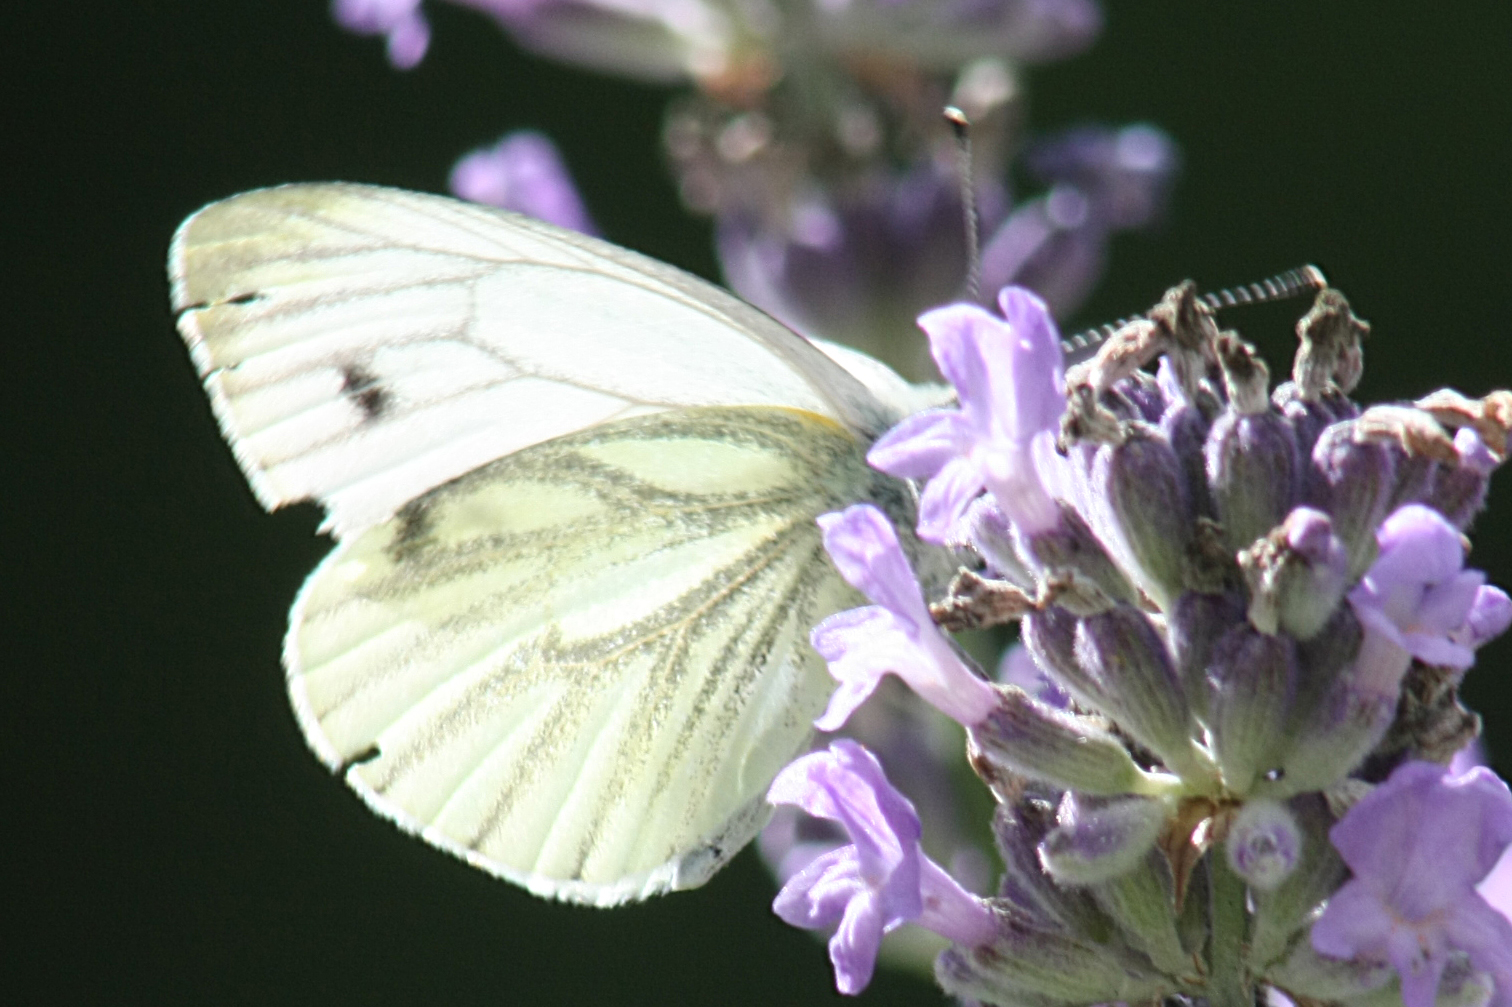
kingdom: Animalia
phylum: Arthropoda
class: Insecta
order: Lepidoptera
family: Pieridae
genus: Pieris
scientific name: Pieris napi
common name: Green-veined white
